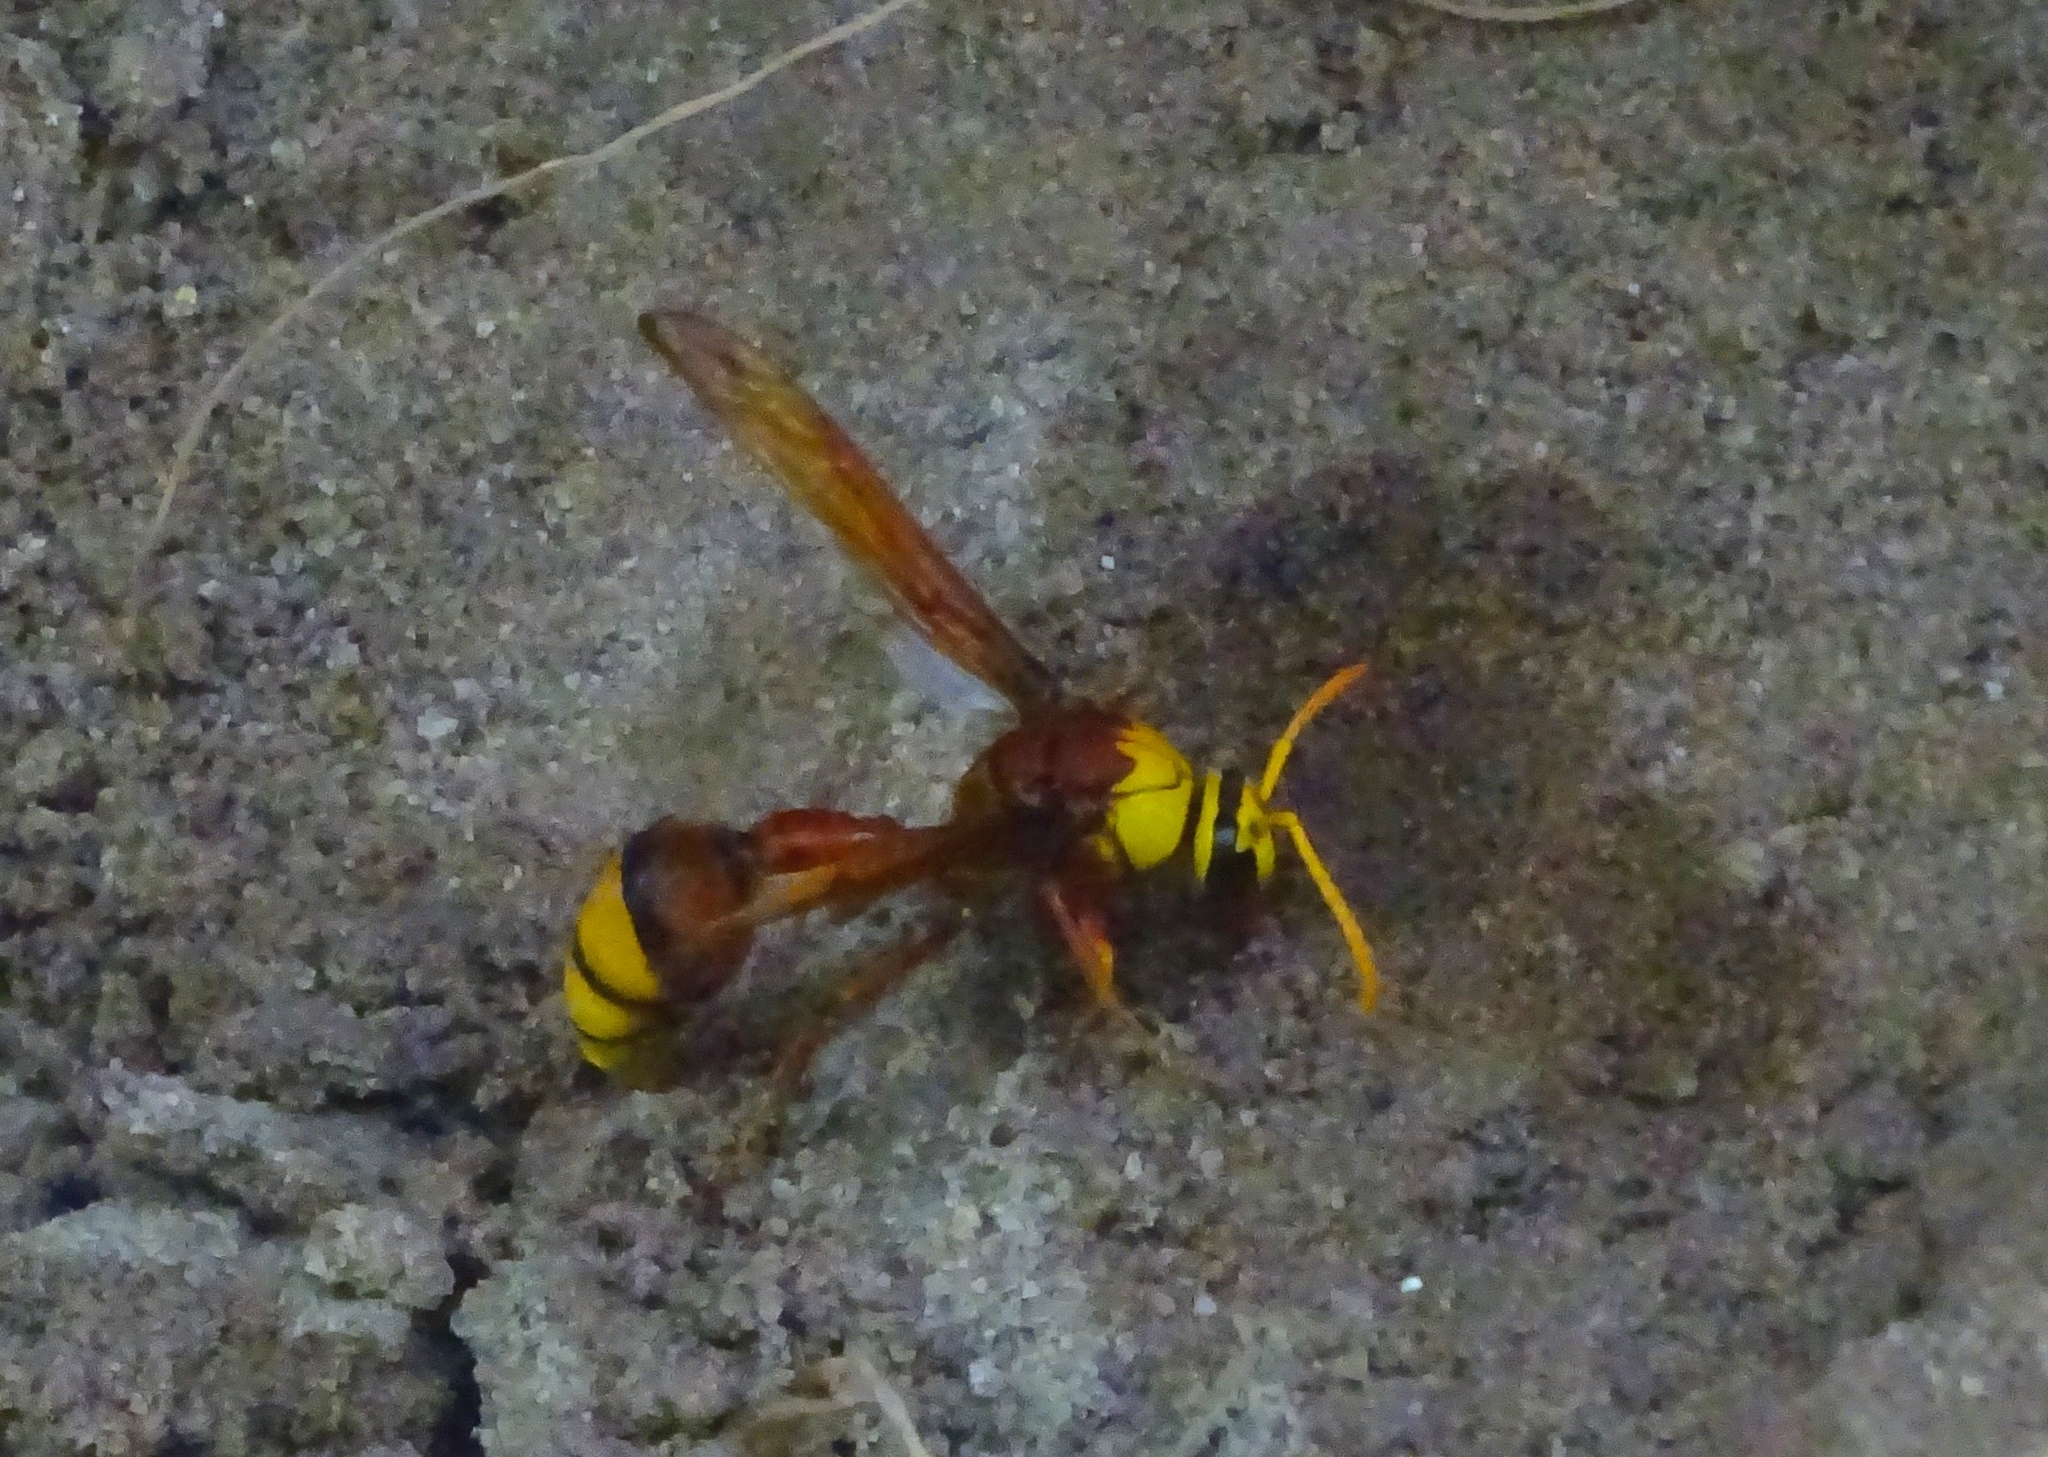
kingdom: Animalia
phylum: Arthropoda
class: Insecta
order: Hymenoptera
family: Eumenidae
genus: Delta
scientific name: Delta pyriforme
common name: Wasp
